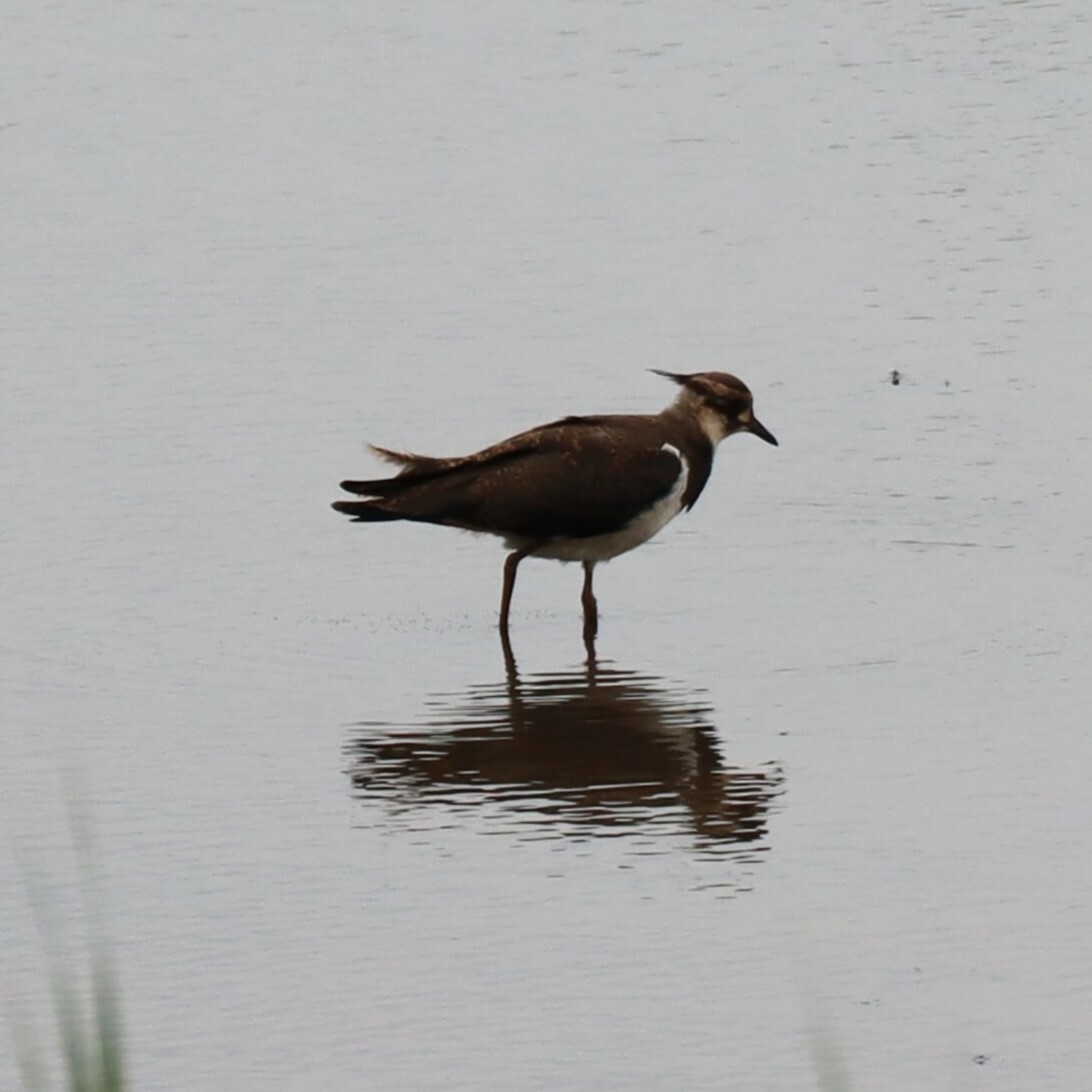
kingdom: Animalia
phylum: Chordata
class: Aves
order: Charadriiformes
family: Charadriidae
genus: Vanellus
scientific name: Vanellus vanellus
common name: Northern lapwing
